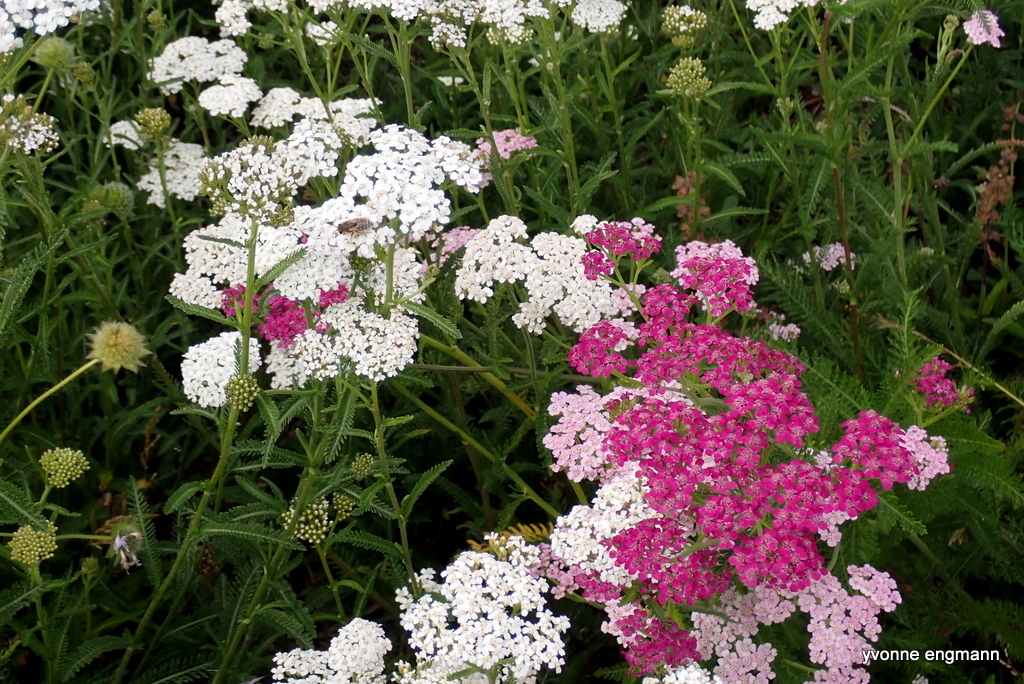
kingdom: Plantae
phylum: Tracheophyta
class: Magnoliopsida
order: Asterales
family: Asteraceae
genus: Achillea
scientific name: Achillea millefolium
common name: Yarrow
